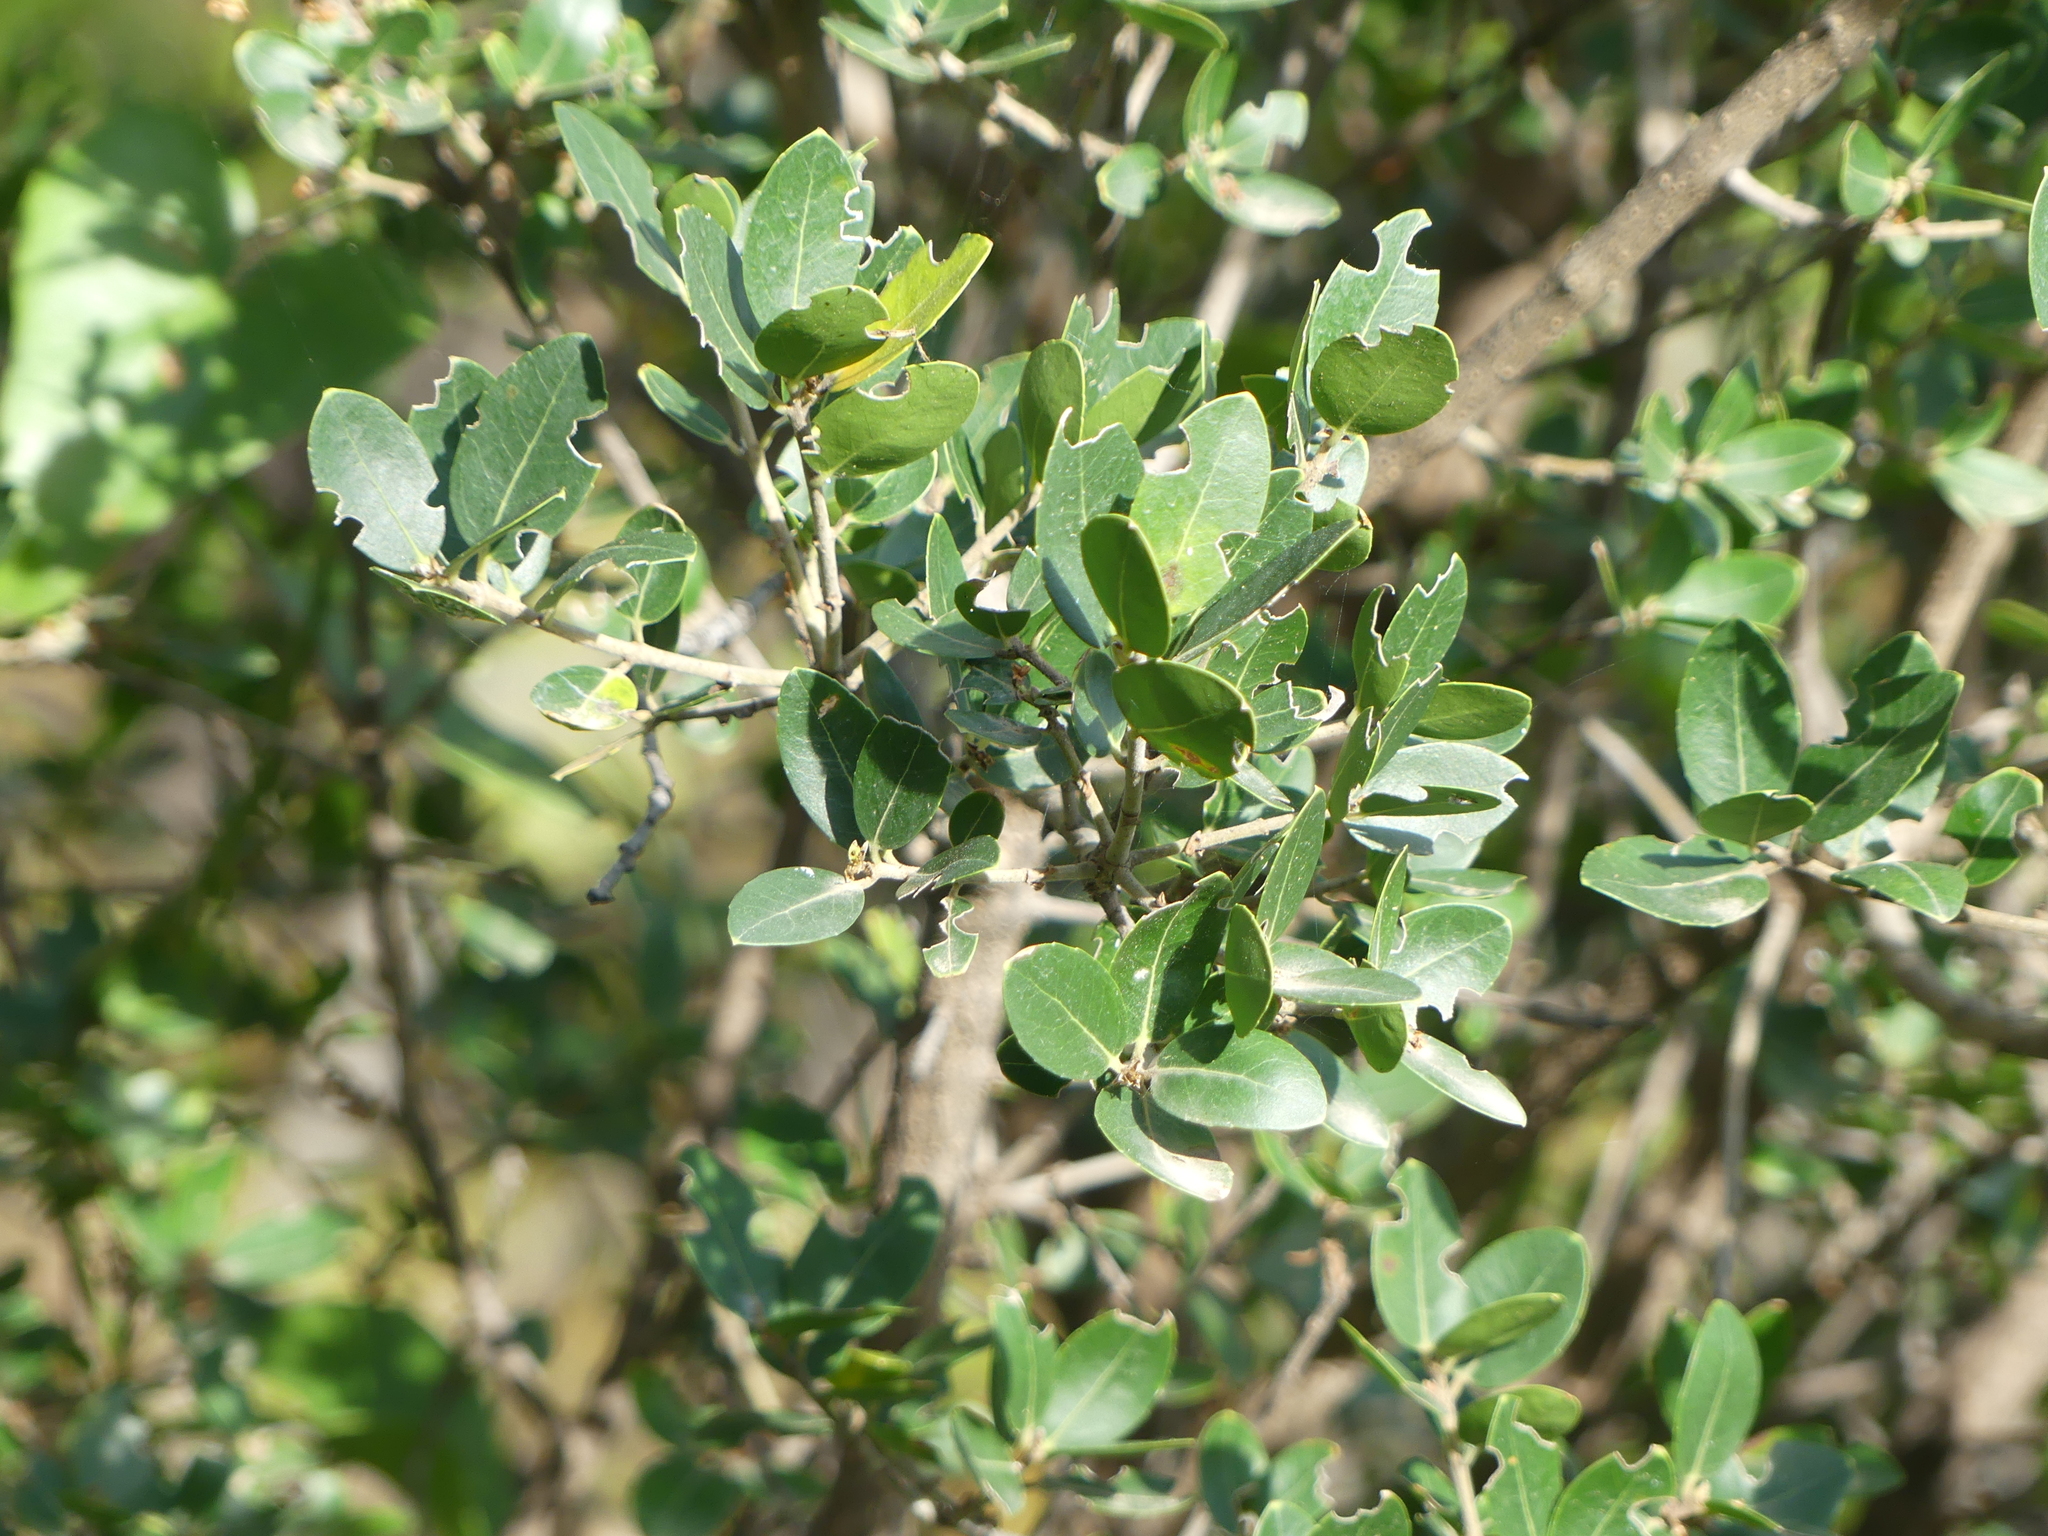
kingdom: Plantae
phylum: Tracheophyta
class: Magnoliopsida
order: Lamiales
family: Oleaceae
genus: Phillyrea
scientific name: Phillyrea latifolia
